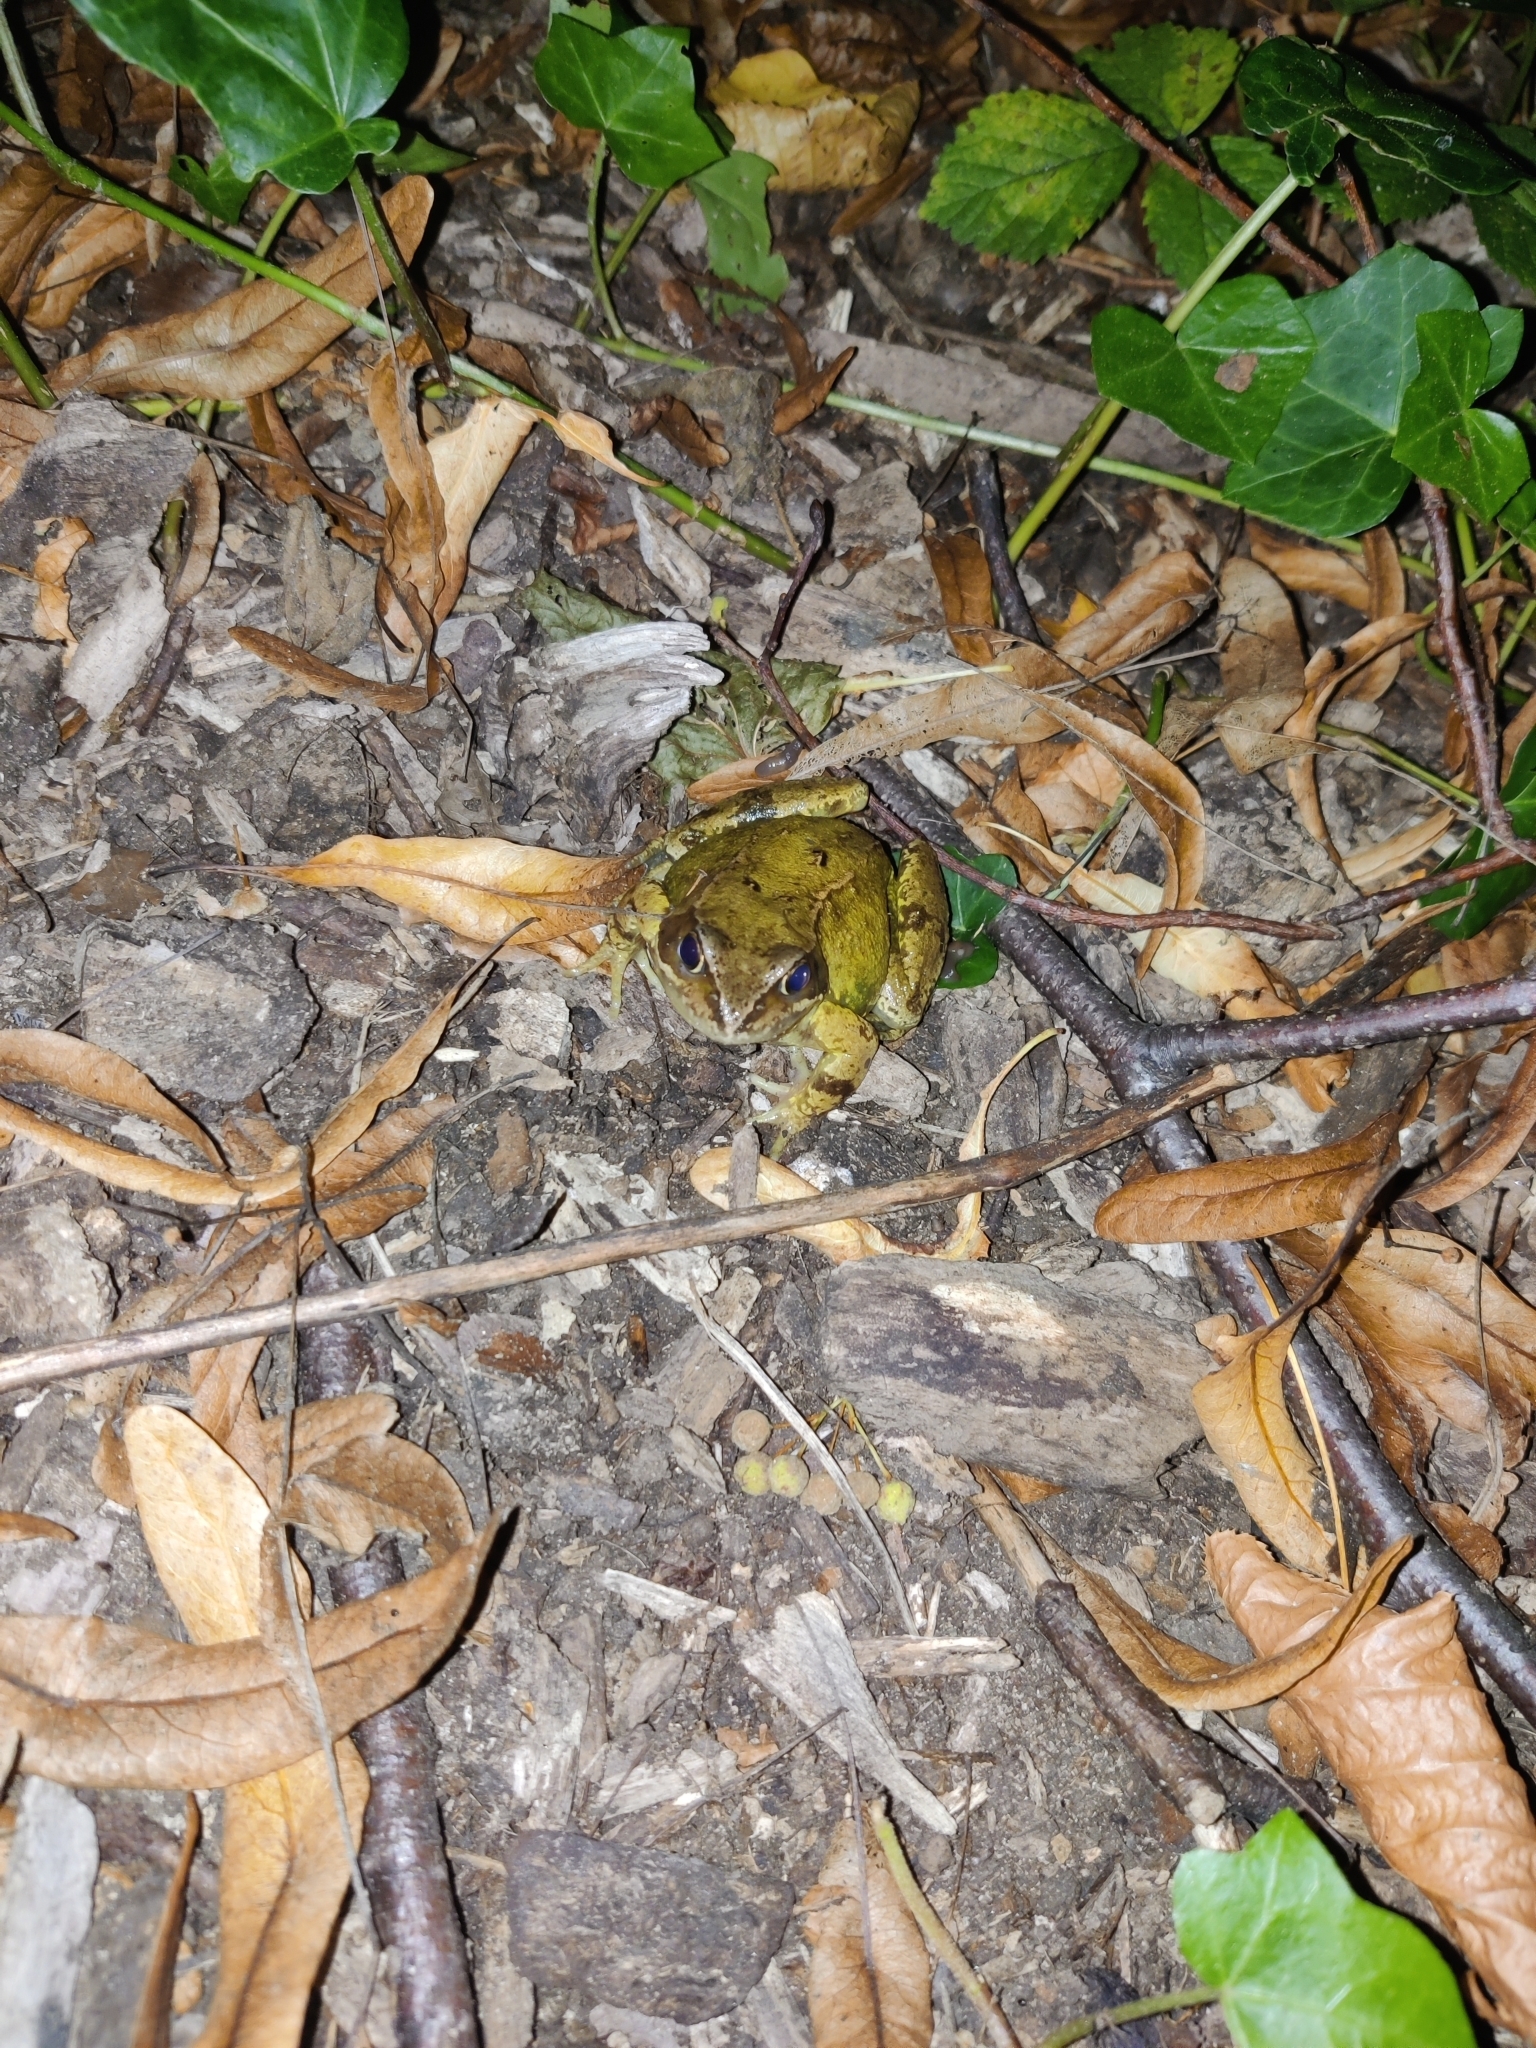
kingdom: Animalia
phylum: Chordata
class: Amphibia
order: Anura
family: Ranidae
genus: Rana
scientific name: Rana temporaria
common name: Common frog
